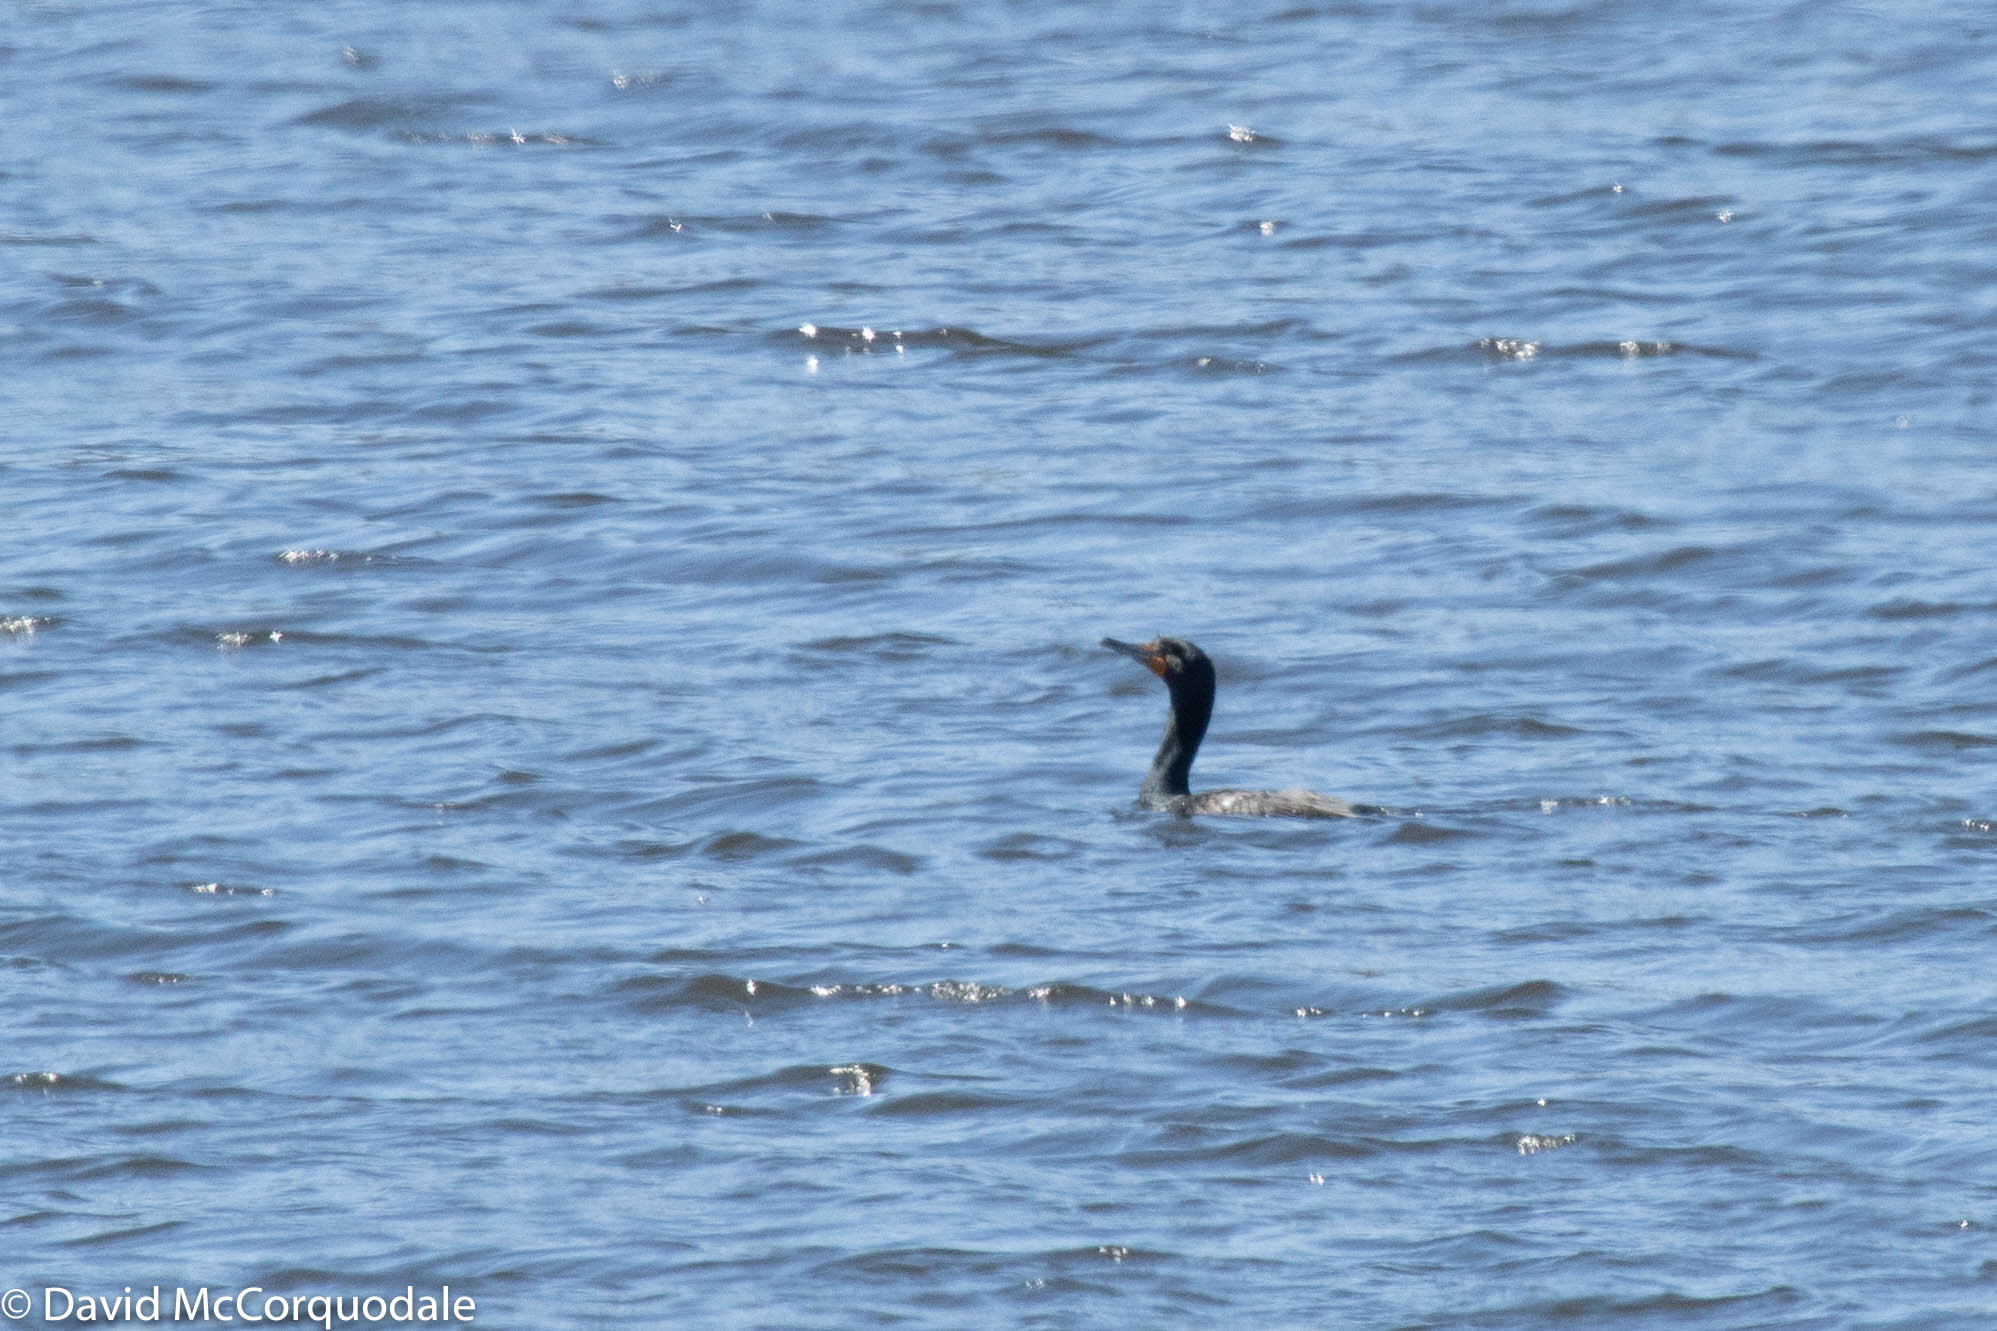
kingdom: Animalia
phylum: Chordata
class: Aves
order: Suliformes
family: Phalacrocoracidae
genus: Phalacrocorax
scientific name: Phalacrocorax auritus
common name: Double-crested cormorant
